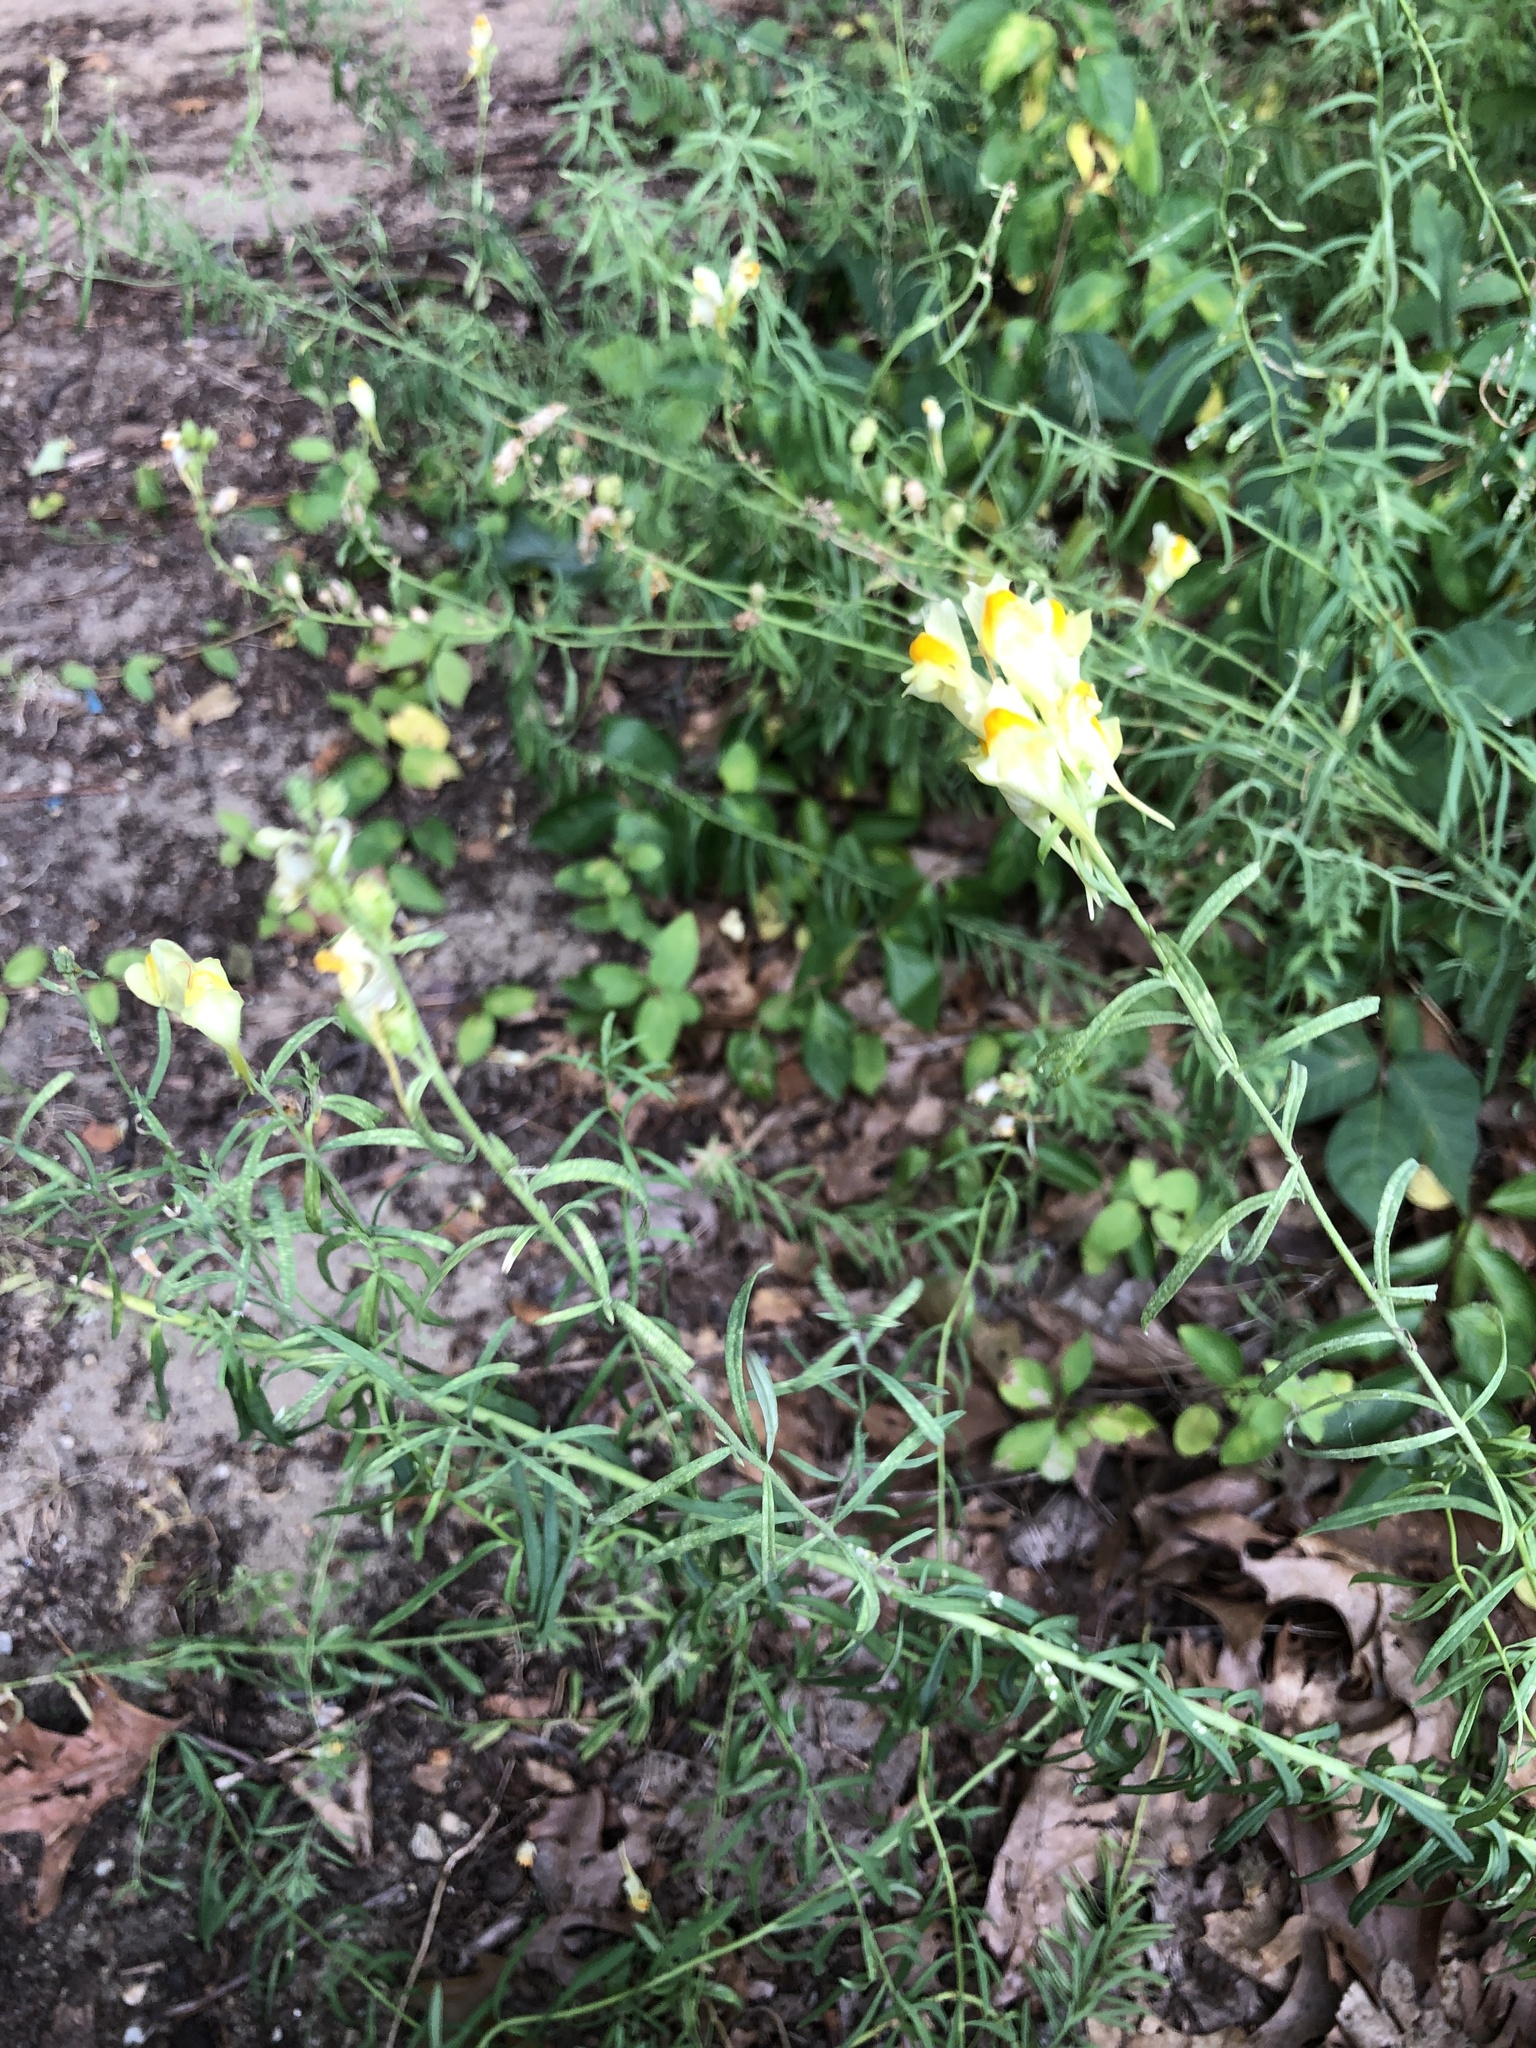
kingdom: Plantae
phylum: Tracheophyta
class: Magnoliopsida
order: Lamiales
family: Plantaginaceae
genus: Linaria
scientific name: Linaria vulgaris
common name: Butter and eggs
